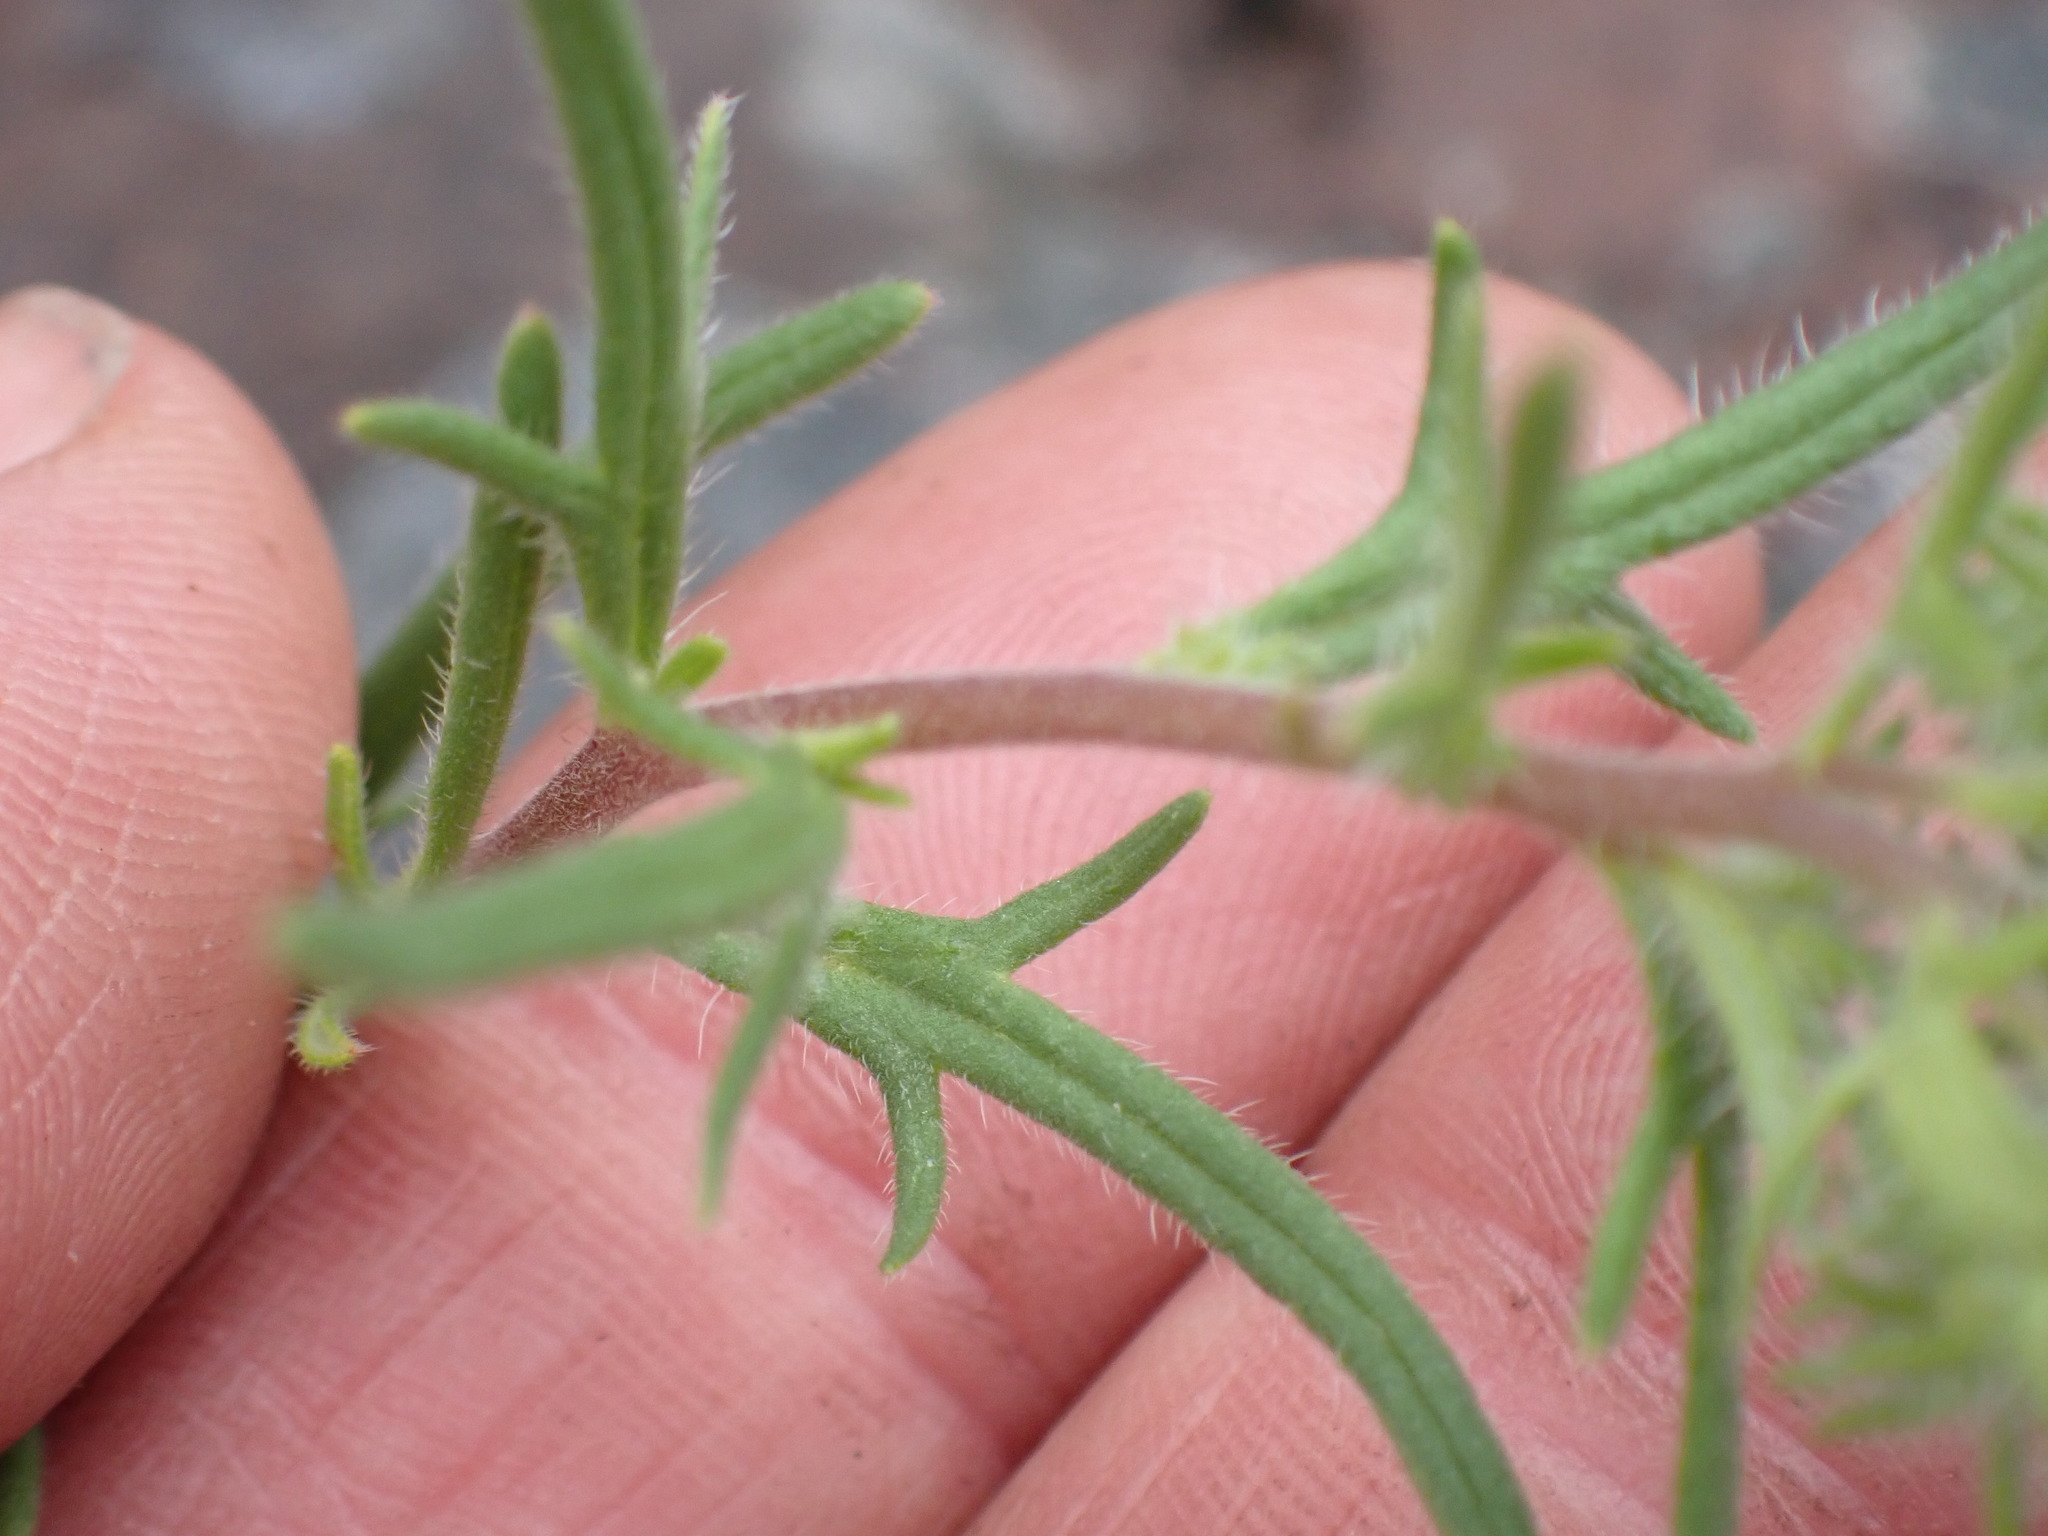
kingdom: Plantae
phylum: Tracheophyta
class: Magnoliopsida
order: Boraginales
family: Hydrophyllaceae
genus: Phacelia
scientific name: Phacelia linearis
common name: Linear-leaved phacelia
